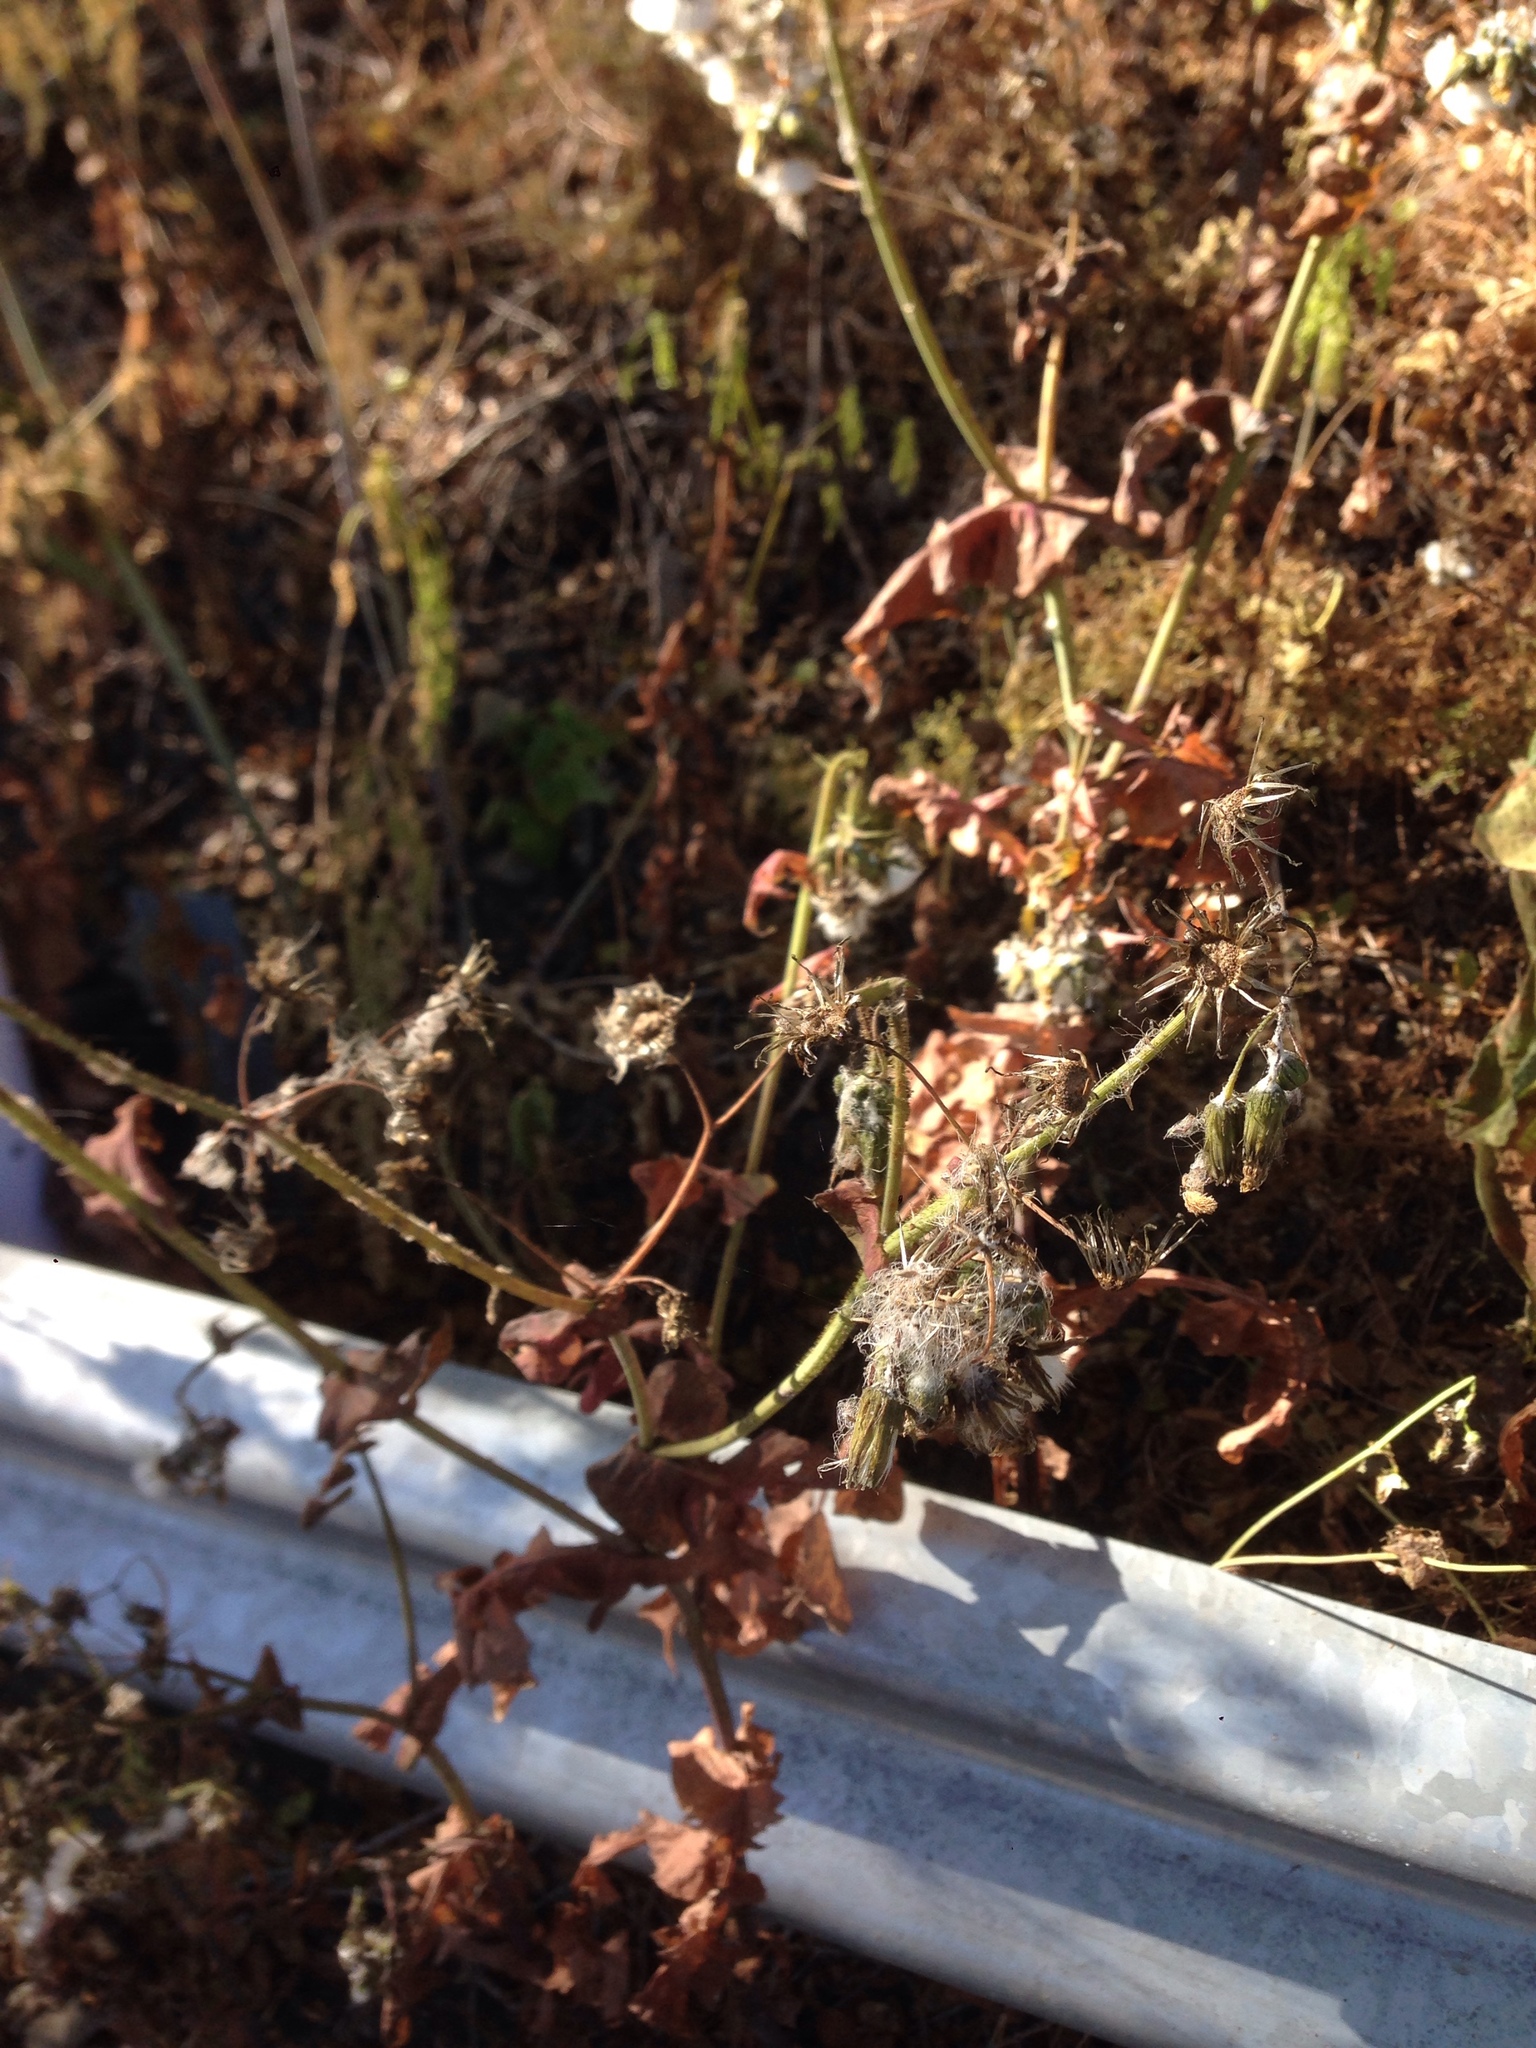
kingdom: Plantae
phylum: Tracheophyta
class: Magnoliopsida
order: Asterales
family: Asteraceae
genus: Sonchus
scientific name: Sonchus oleraceus
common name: Common sowthistle
